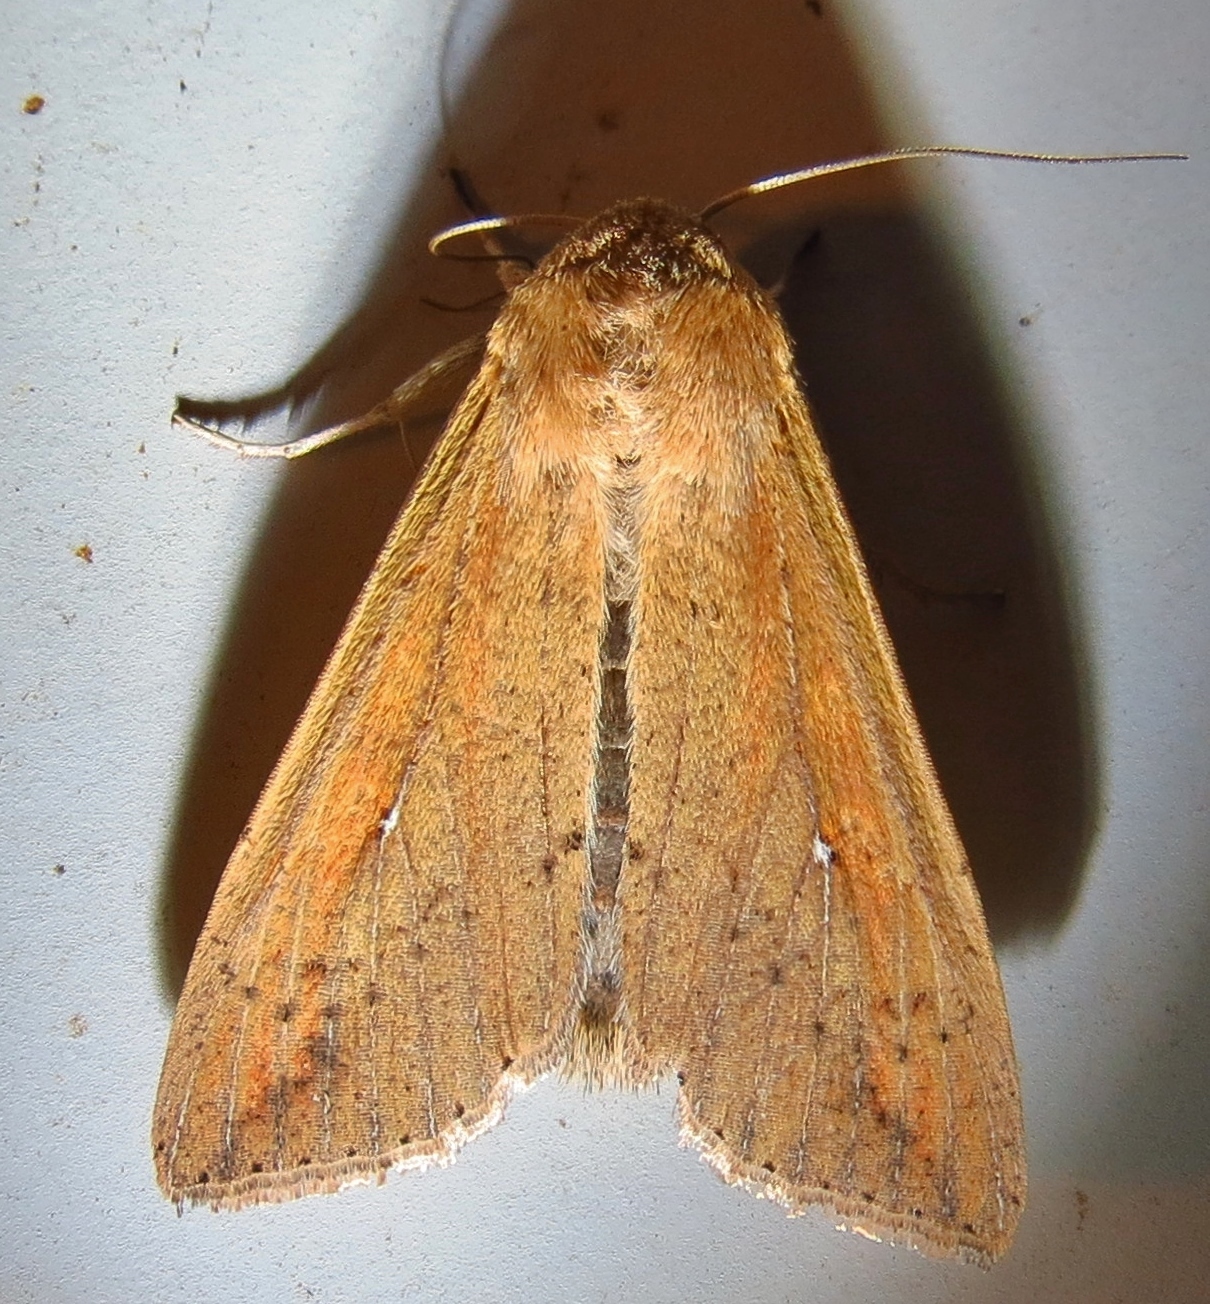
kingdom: Animalia
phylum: Arthropoda
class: Insecta
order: Lepidoptera
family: Noctuidae
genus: Mythimna
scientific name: Mythimna unipuncta
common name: White-speck
